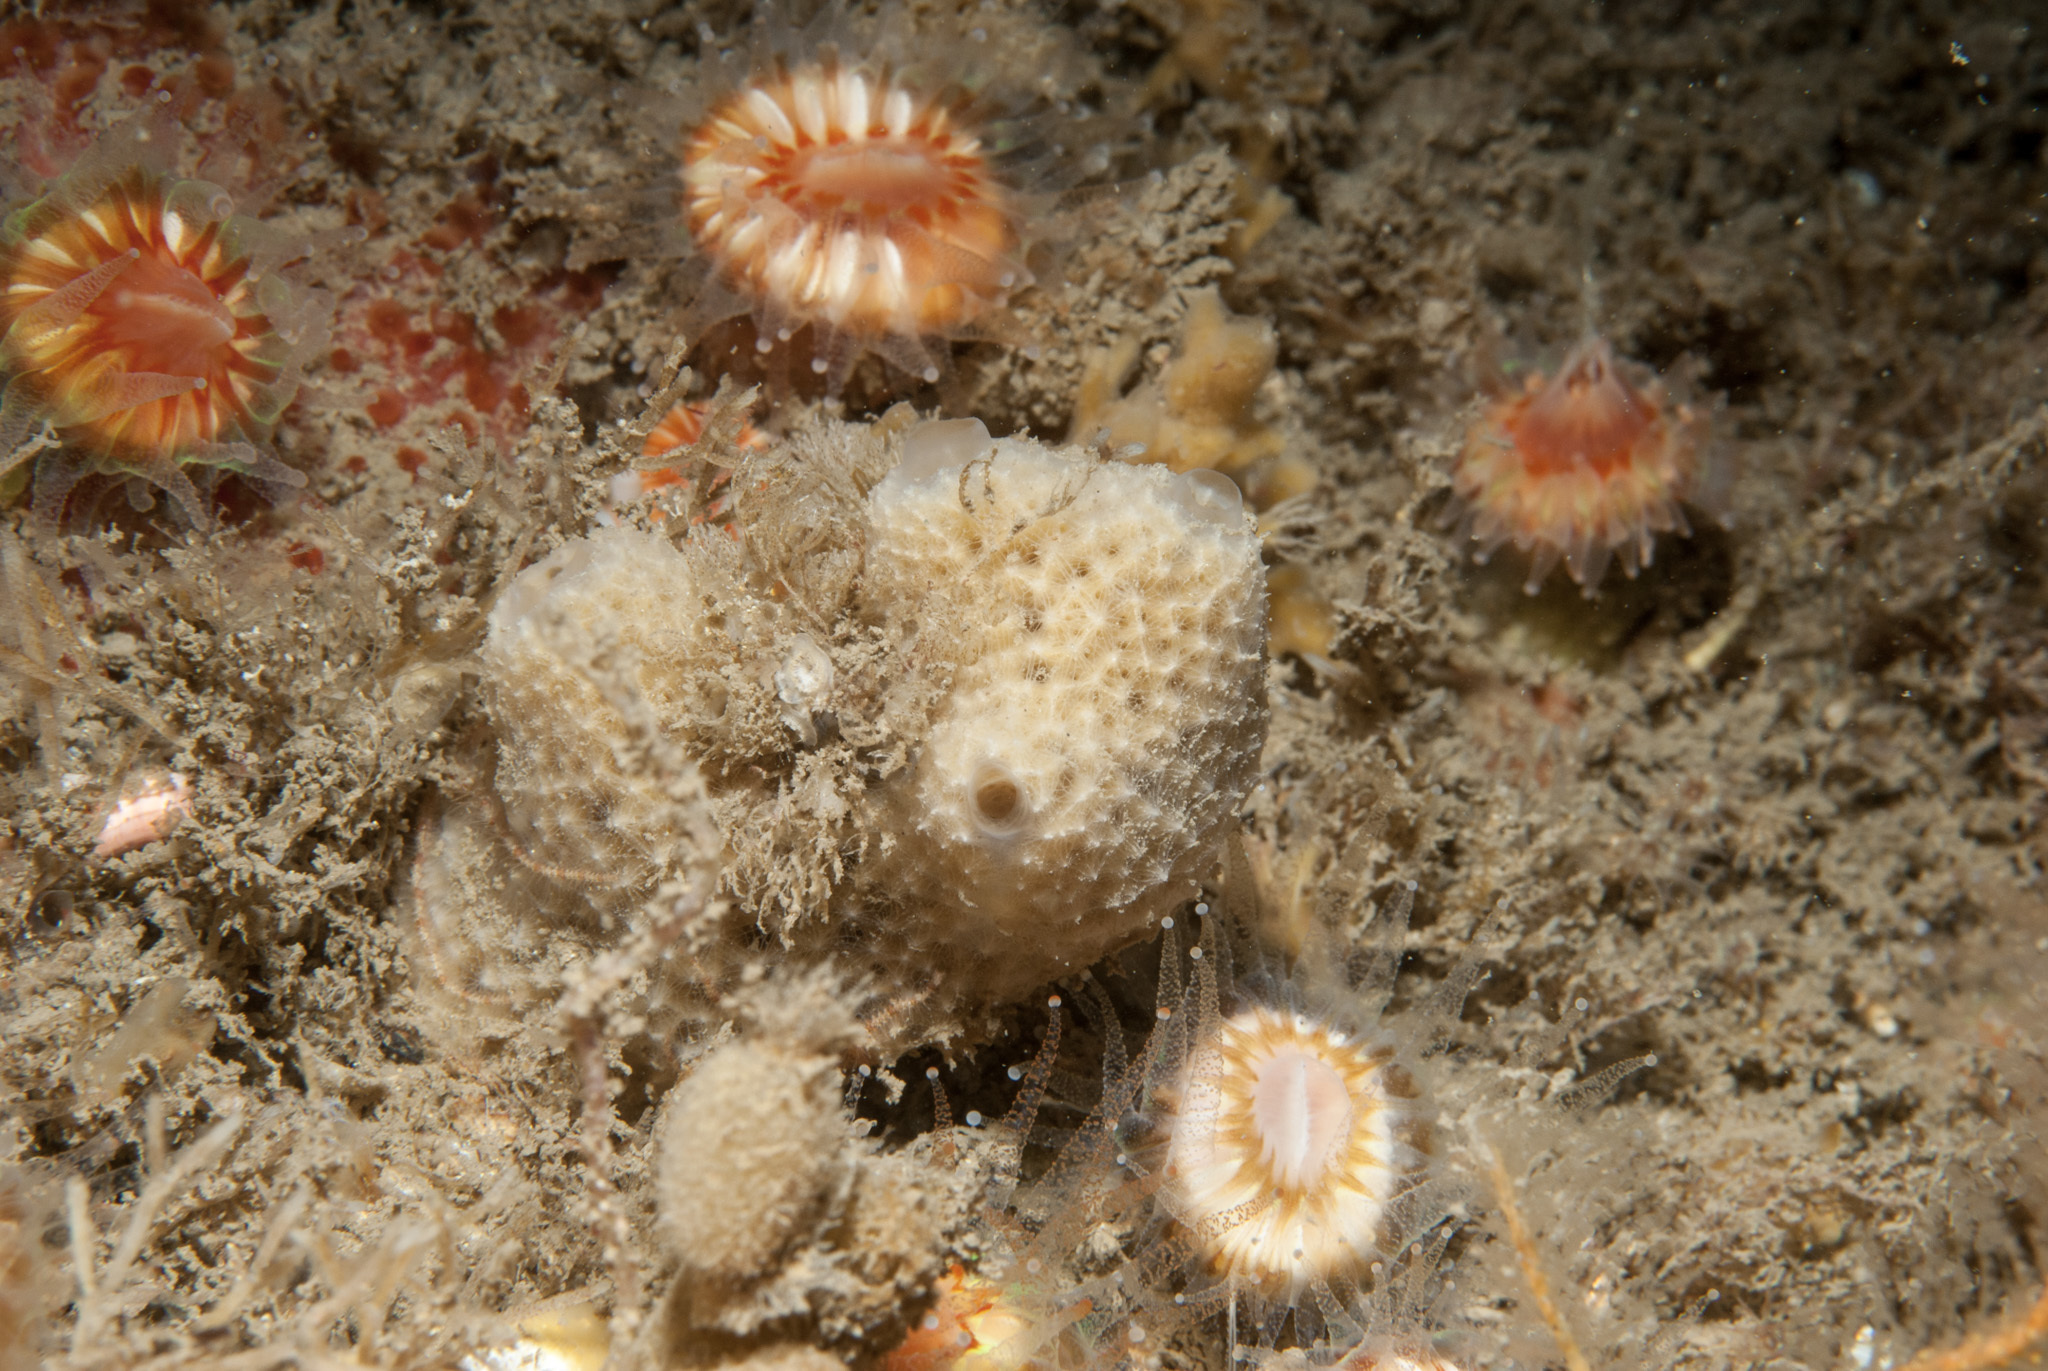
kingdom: Animalia
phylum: Porifera
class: Demospongiae
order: Dictyoceratida
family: Dysideidae
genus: Dysidea
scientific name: Dysidea fragilis
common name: Goosebump sponge
